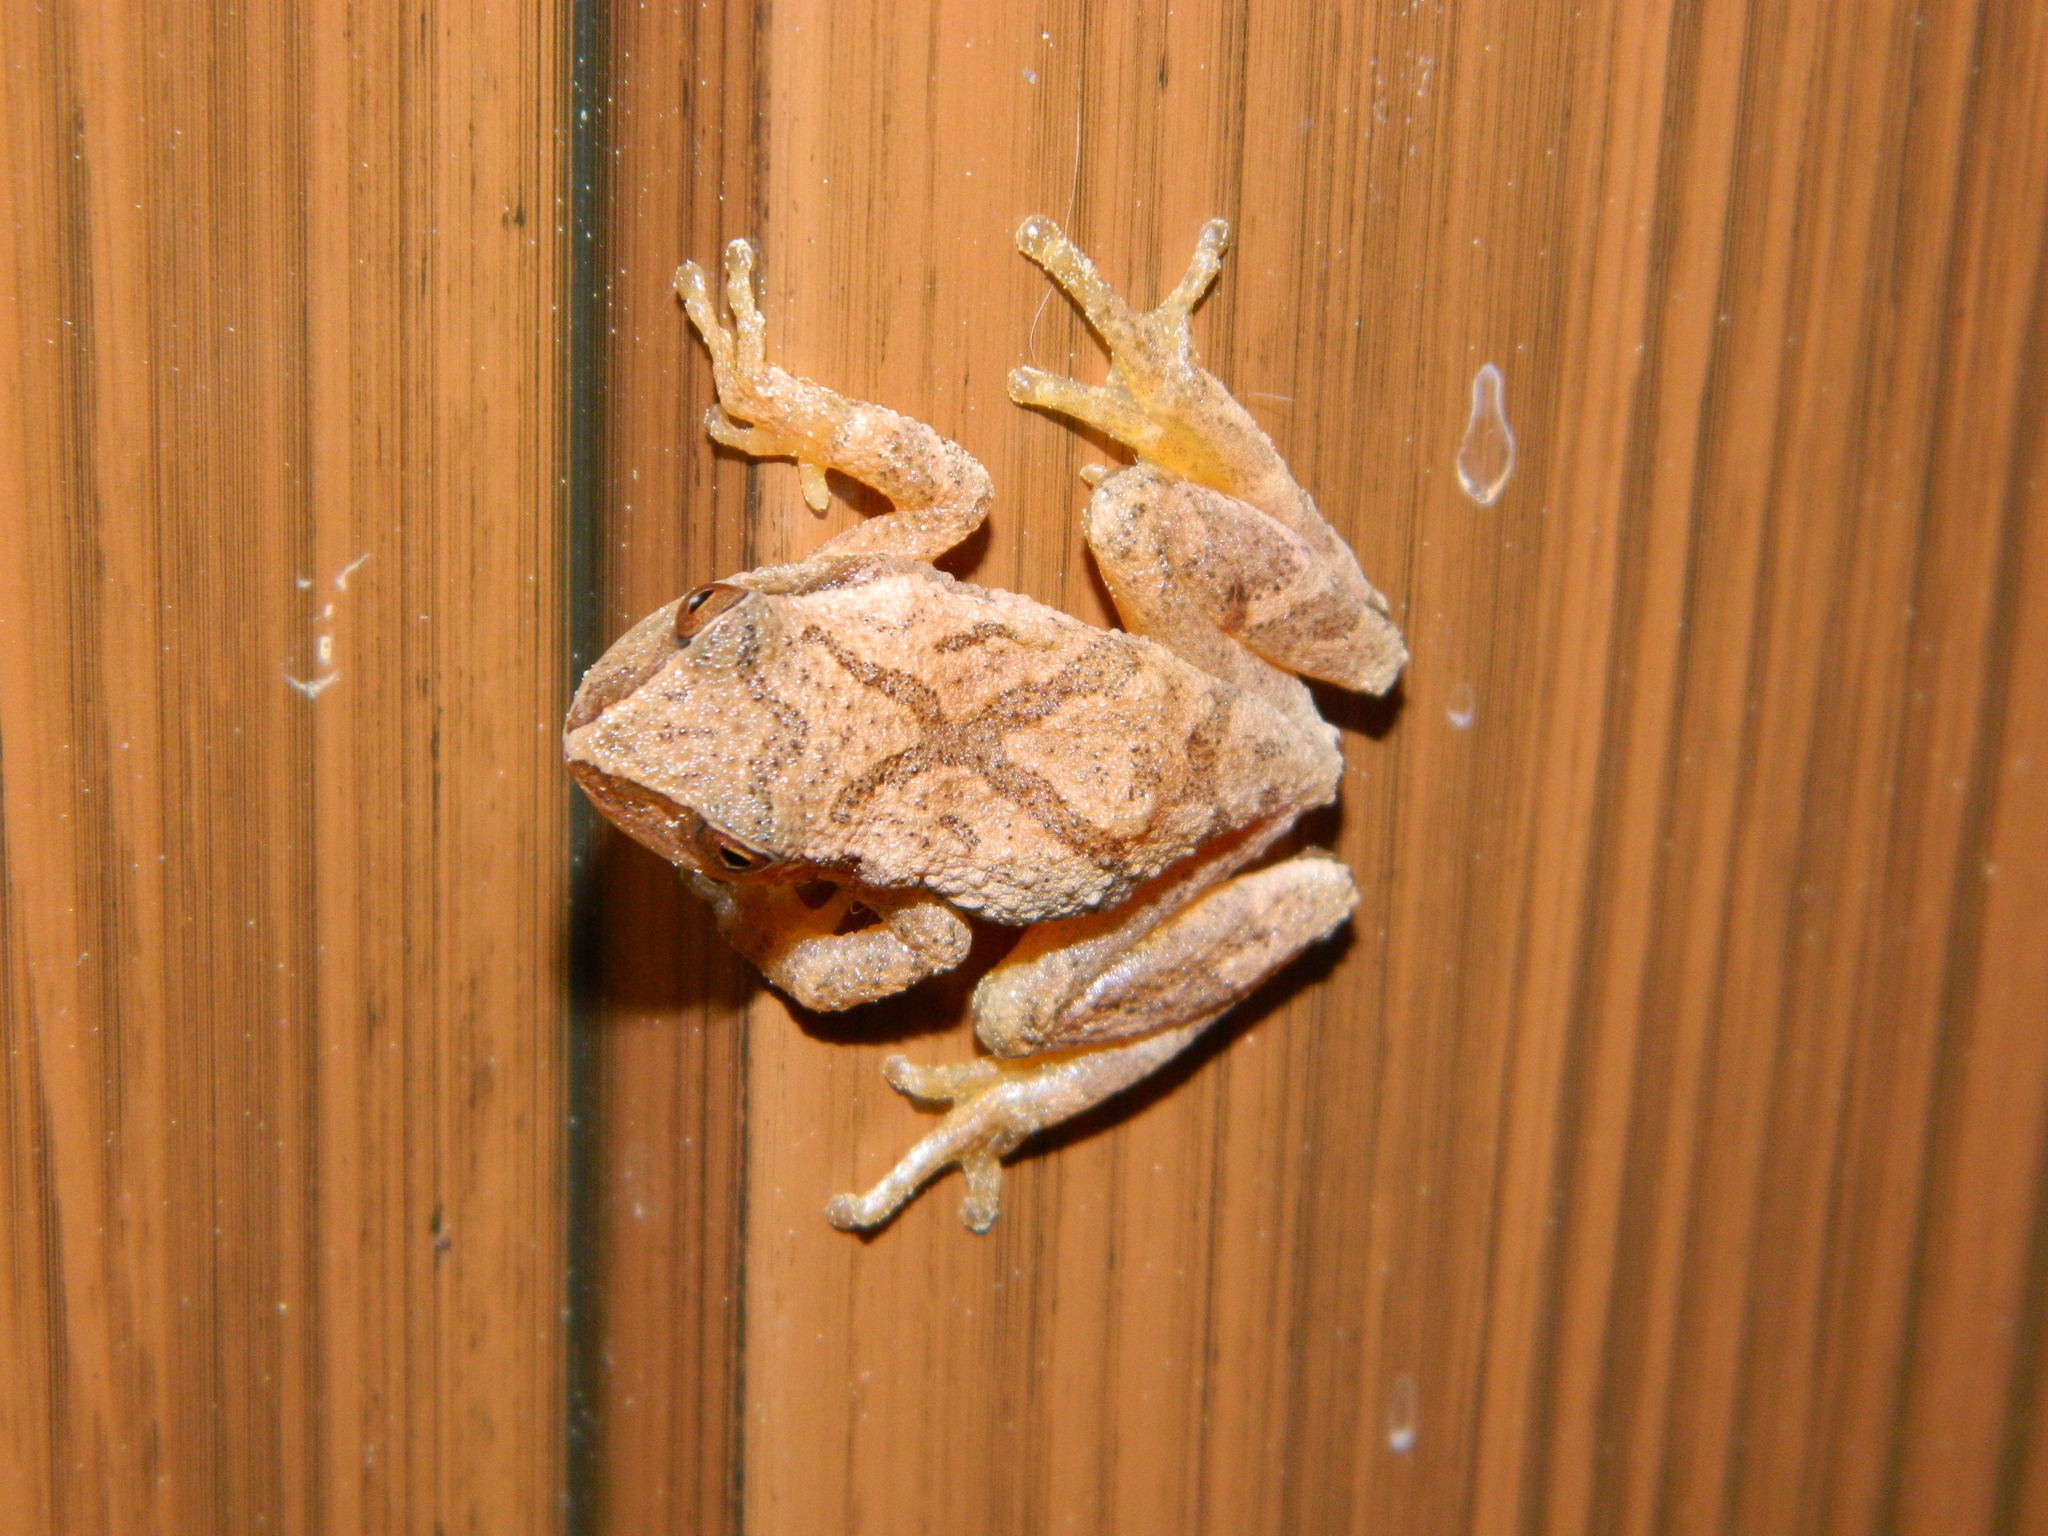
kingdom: Animalia
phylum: Chordata
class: Amphibia
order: Anura
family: Hylidae
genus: Pseudacris
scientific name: Pseudacris crucifer
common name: Spring peeper
